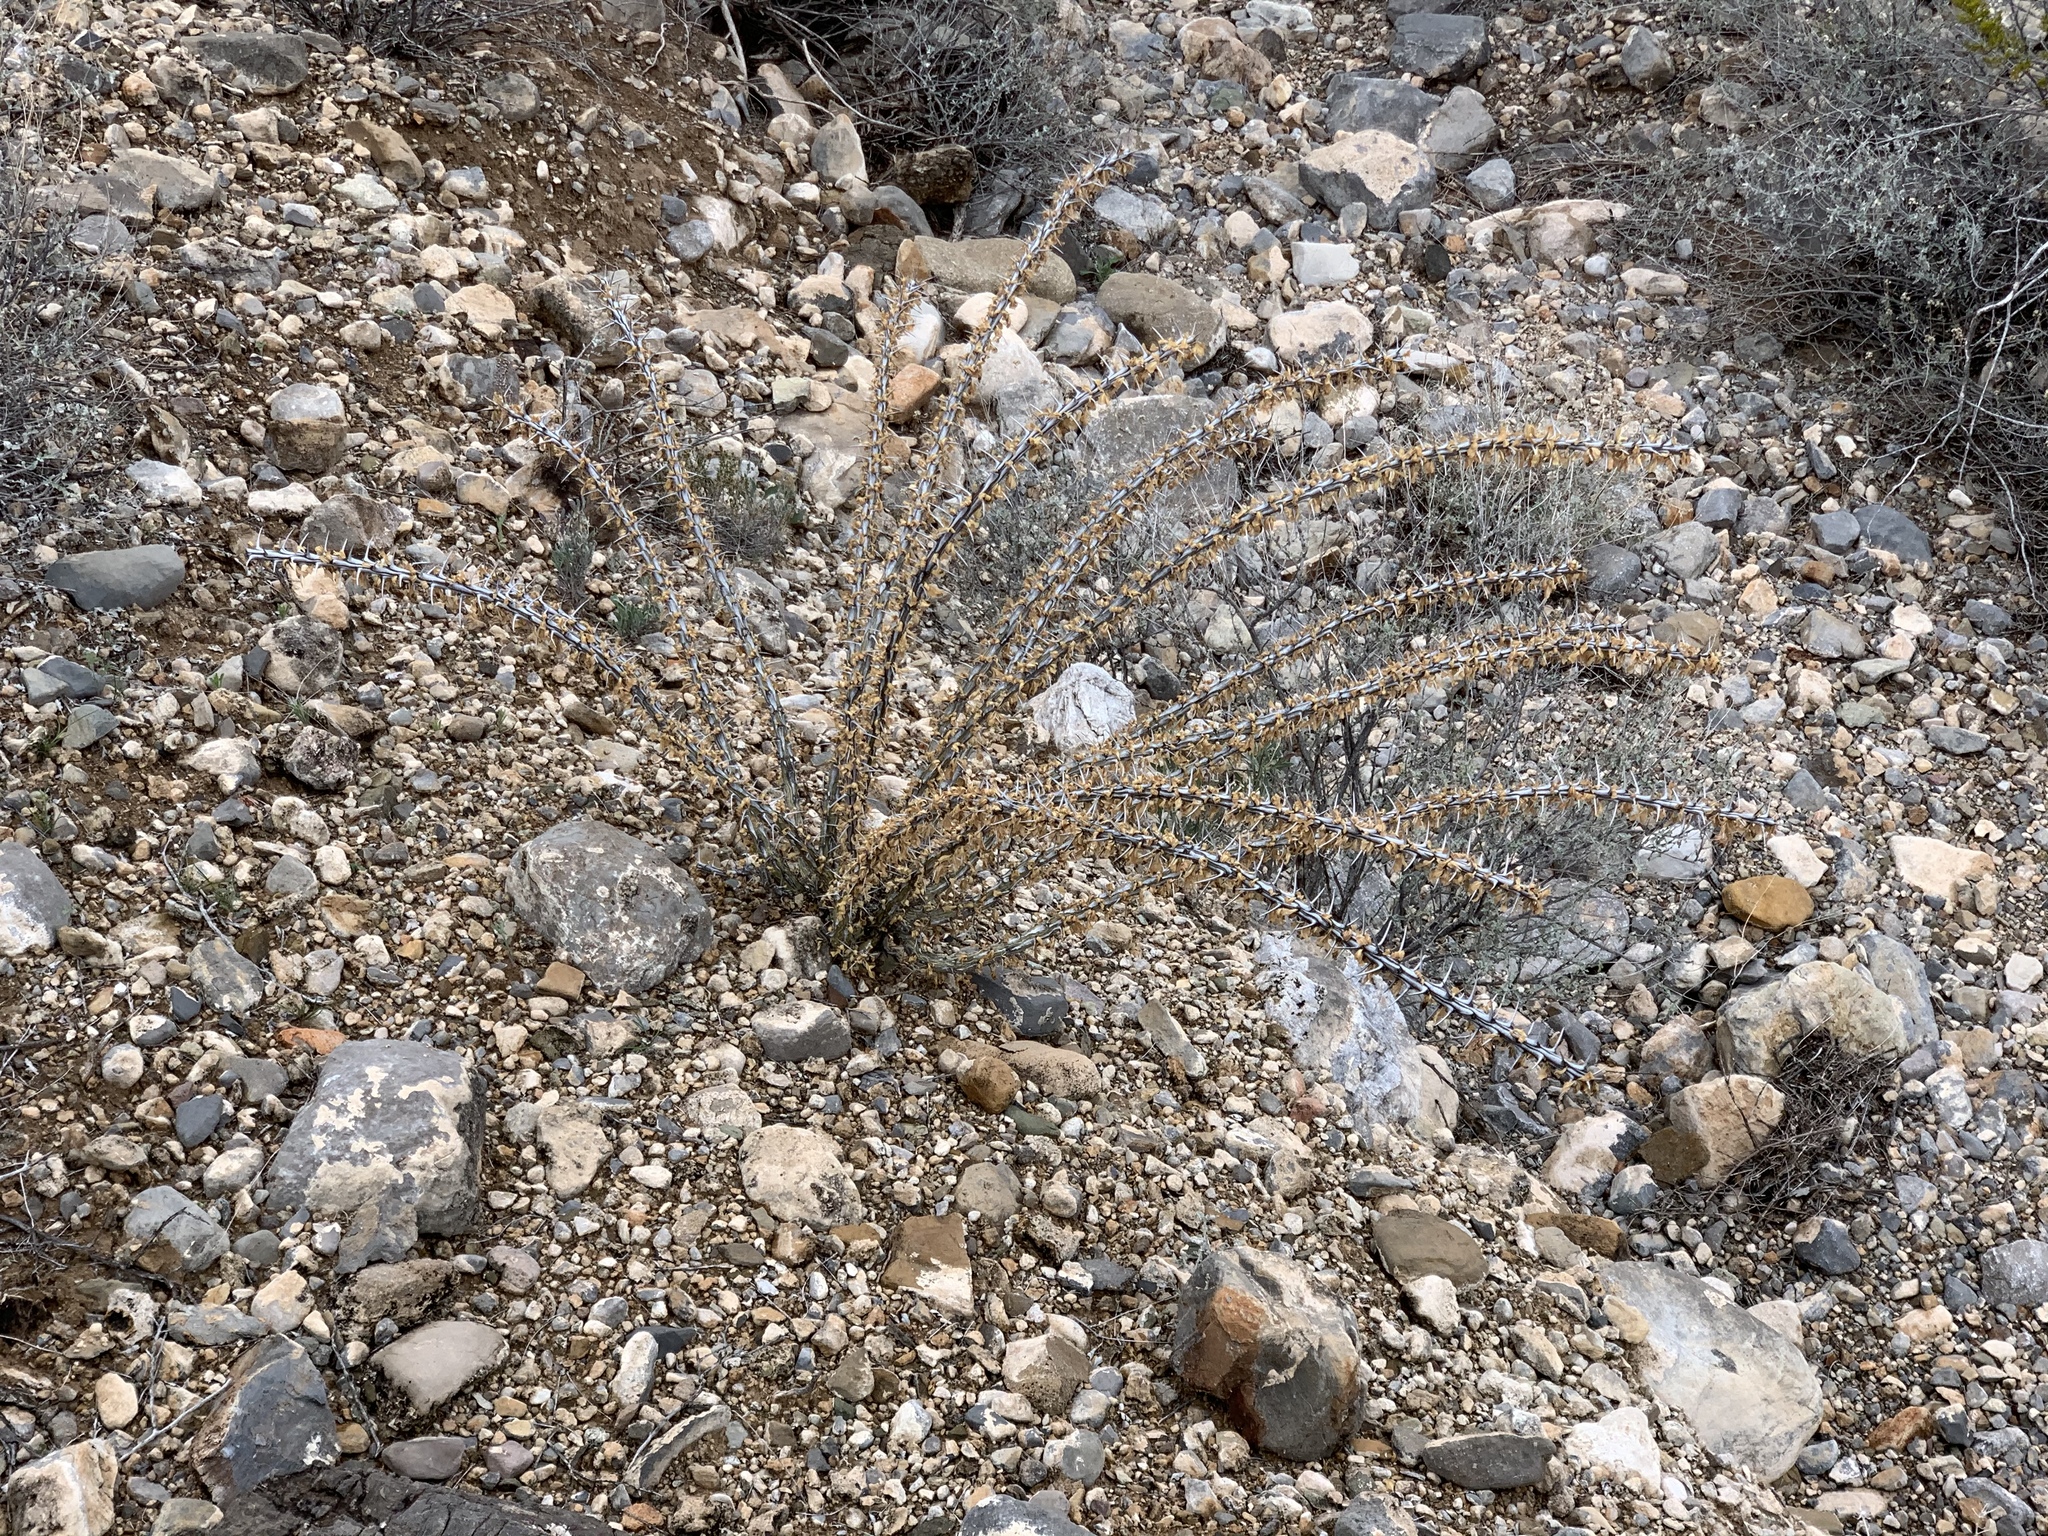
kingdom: Plantae
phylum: Tracheophyta
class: Magnoliopsida
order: Ericales
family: Fouquieriaceae
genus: Fouquieria
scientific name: Fouquieria splendens
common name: Vine-cactus
